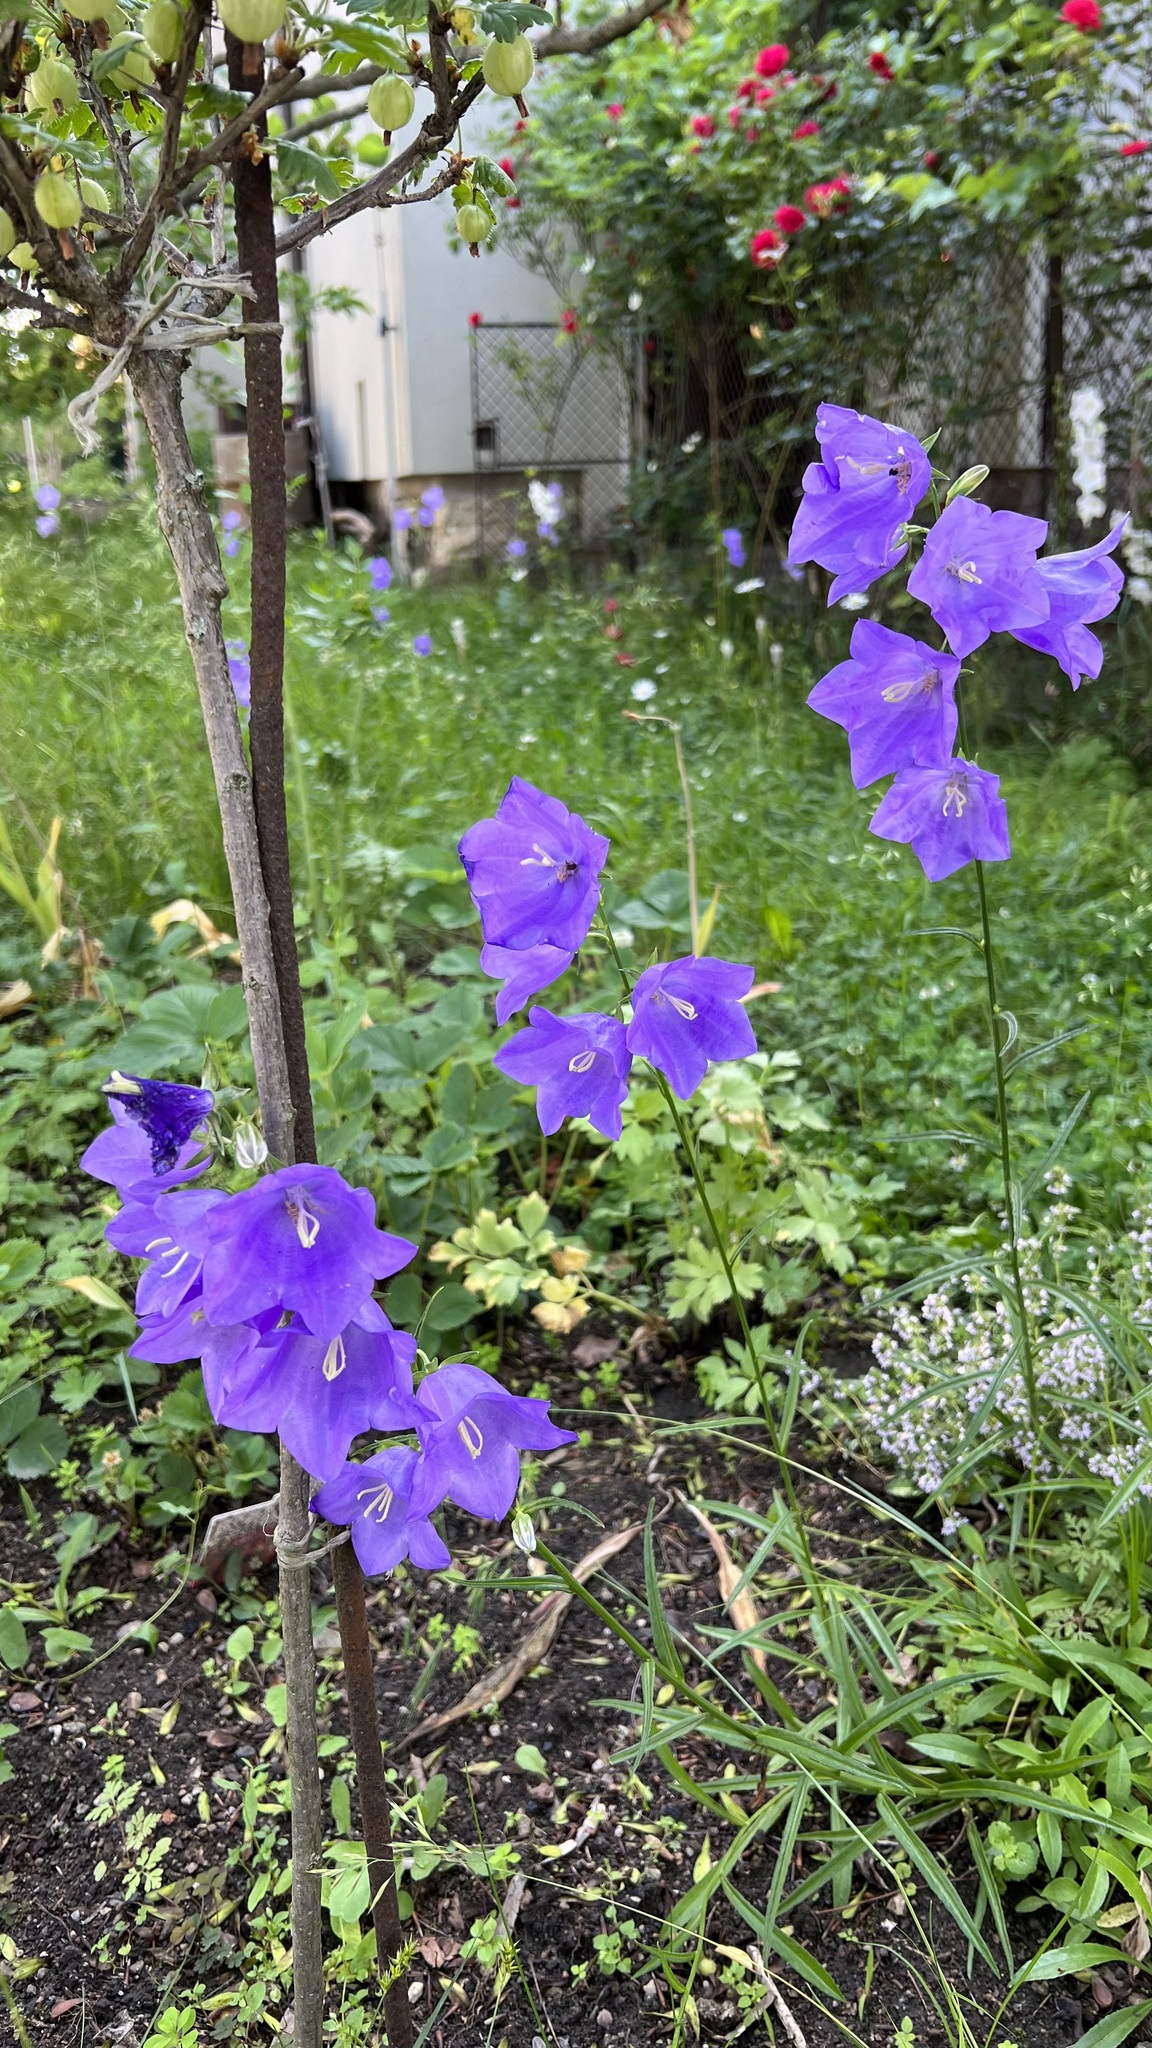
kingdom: Plantae
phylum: Tracheophyta
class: Magnoliopsida
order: Asterales
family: Campanulaceae
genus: Campanula
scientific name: Campanula persicifolia
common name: Peach-leaved bellflower
